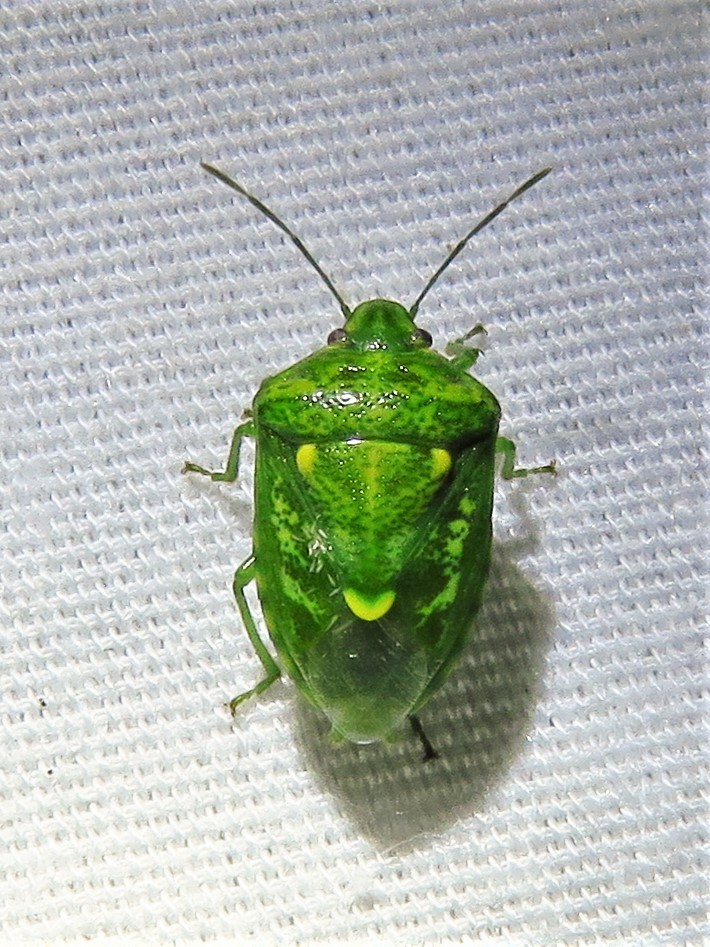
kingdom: Animalia
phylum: Arthropoda
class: Insecta
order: Hemiptera
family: Pentatomidae
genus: Banasa
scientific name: Banasa euchlora
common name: Cedar berry bug
